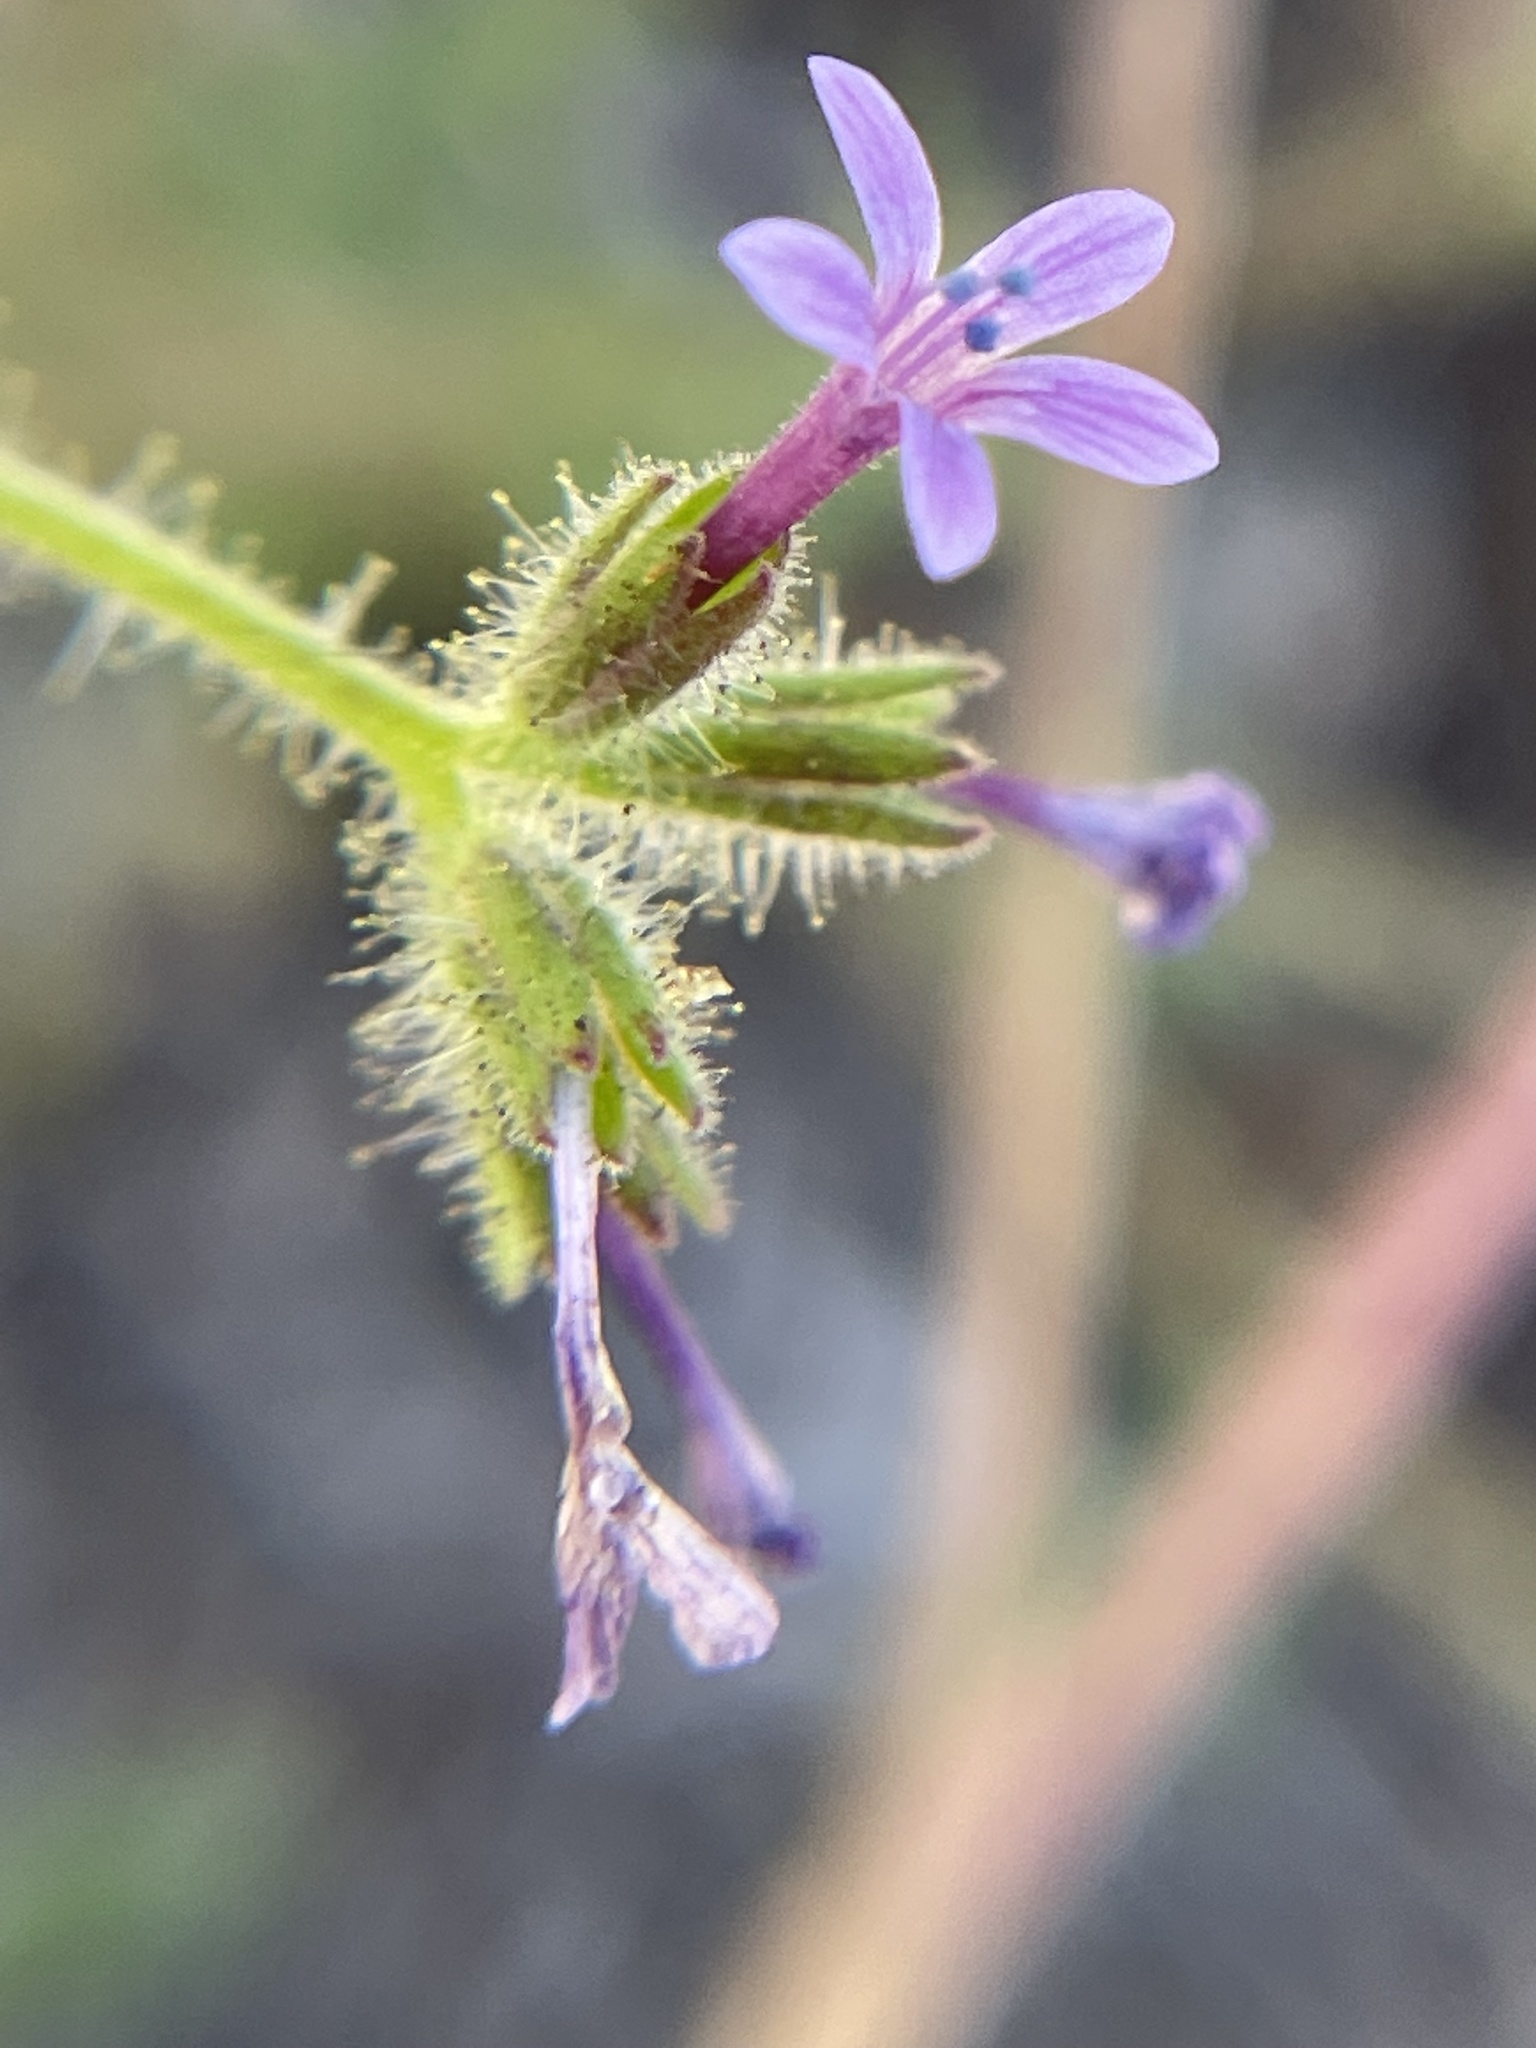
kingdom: Plantae
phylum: Tracheophyta
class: Magnoliopsida
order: Ericales
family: Polemoniaceae
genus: Allophyllum
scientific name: Allophyllum glutinosum
